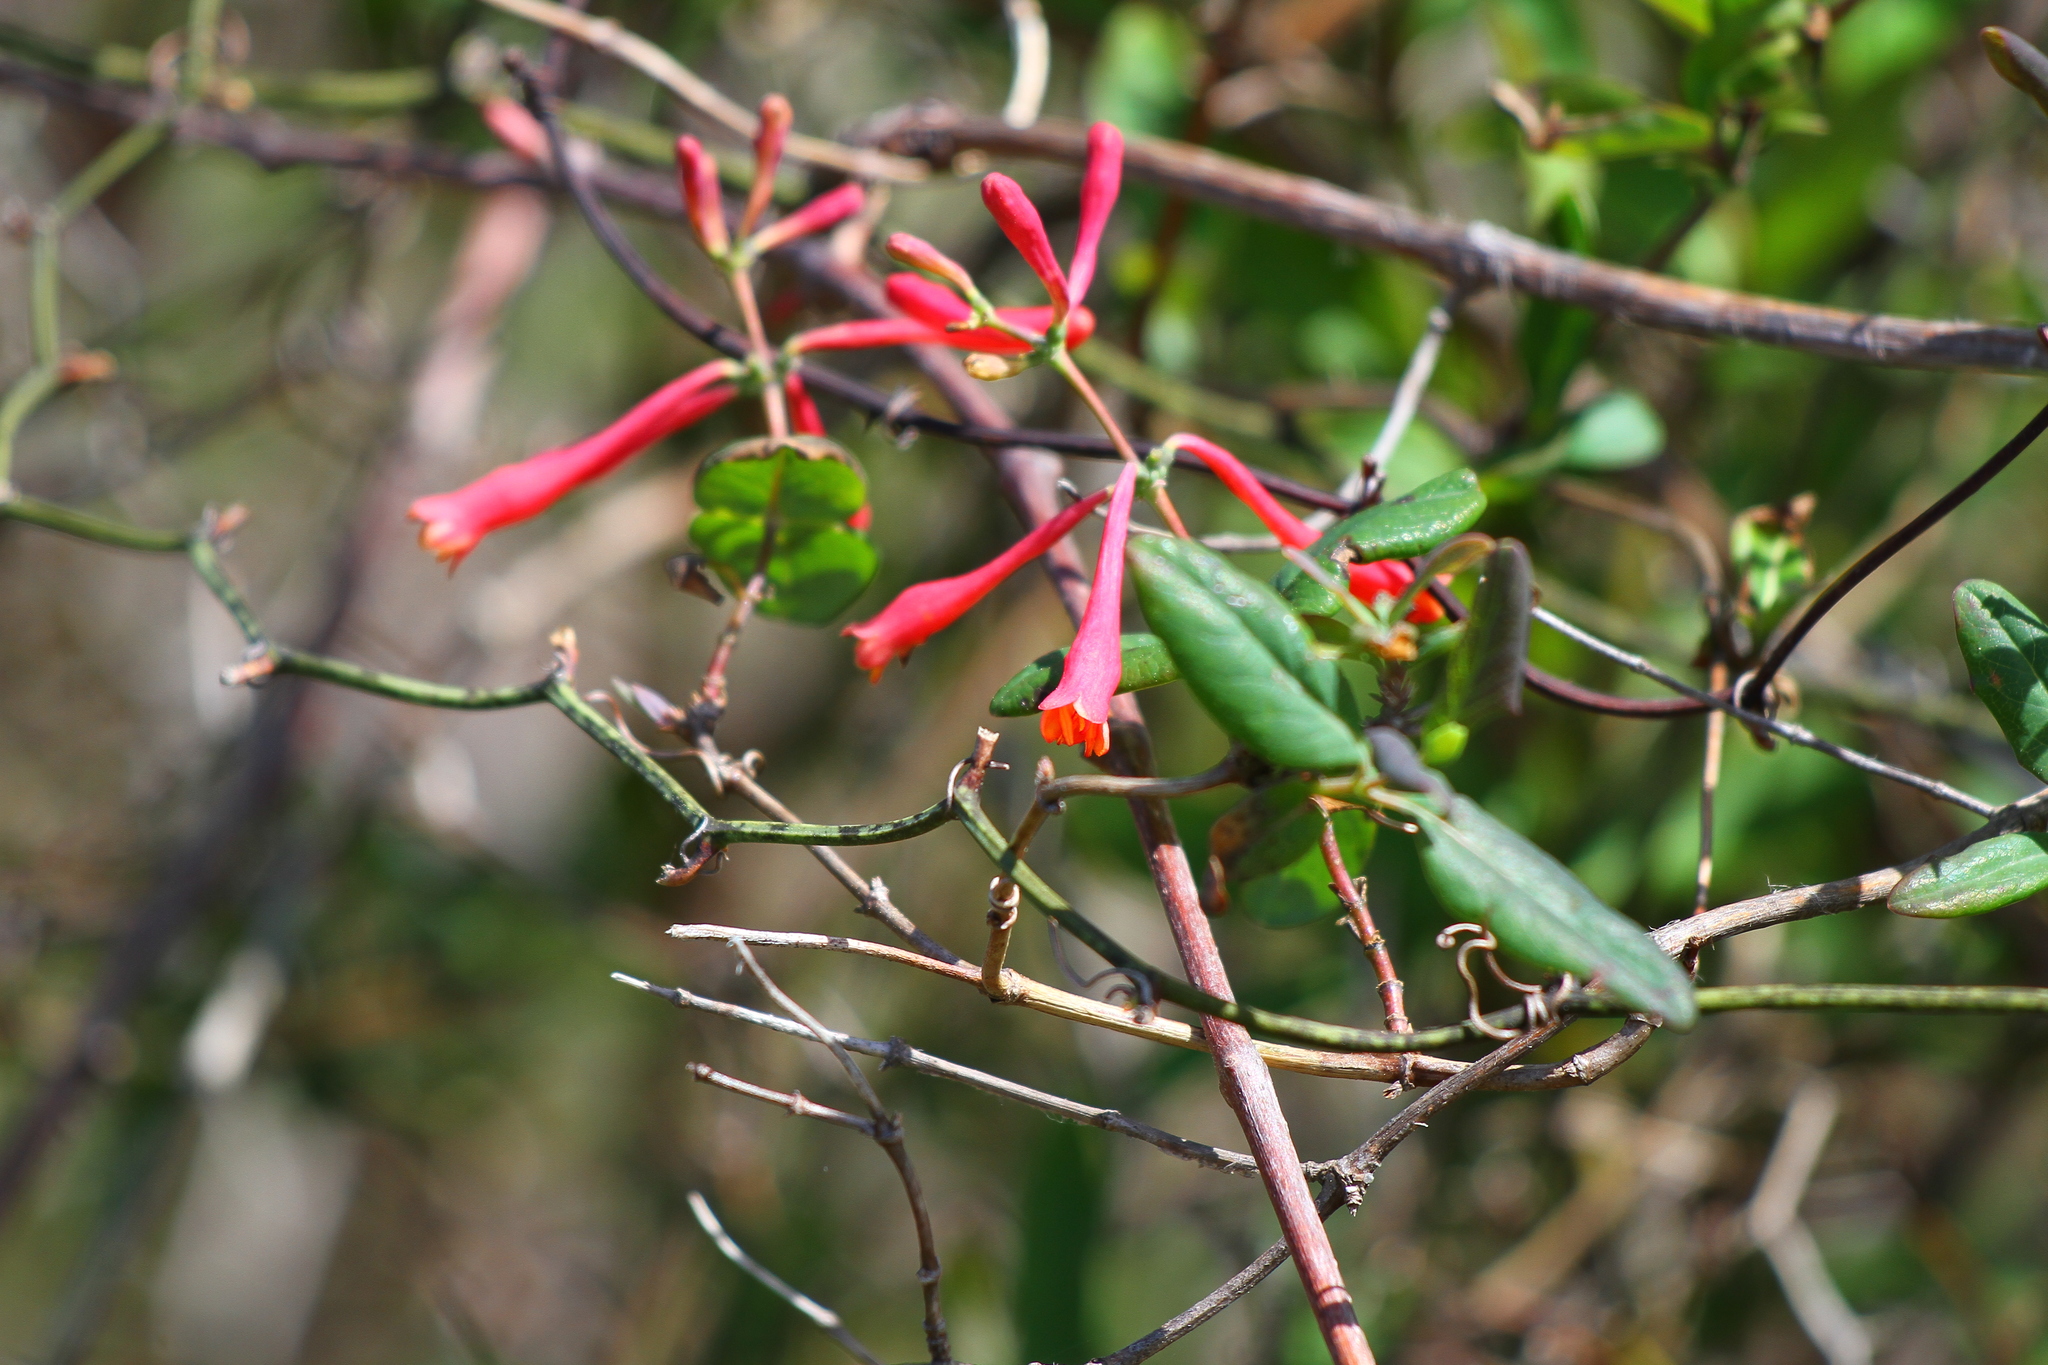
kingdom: Plantae
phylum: Tracheophyta
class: Magnoliopsida
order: Dipsacales
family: Caprifoliaceae
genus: Lonicera
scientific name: Lonicera sempervirens
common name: Coral honeysuckle
